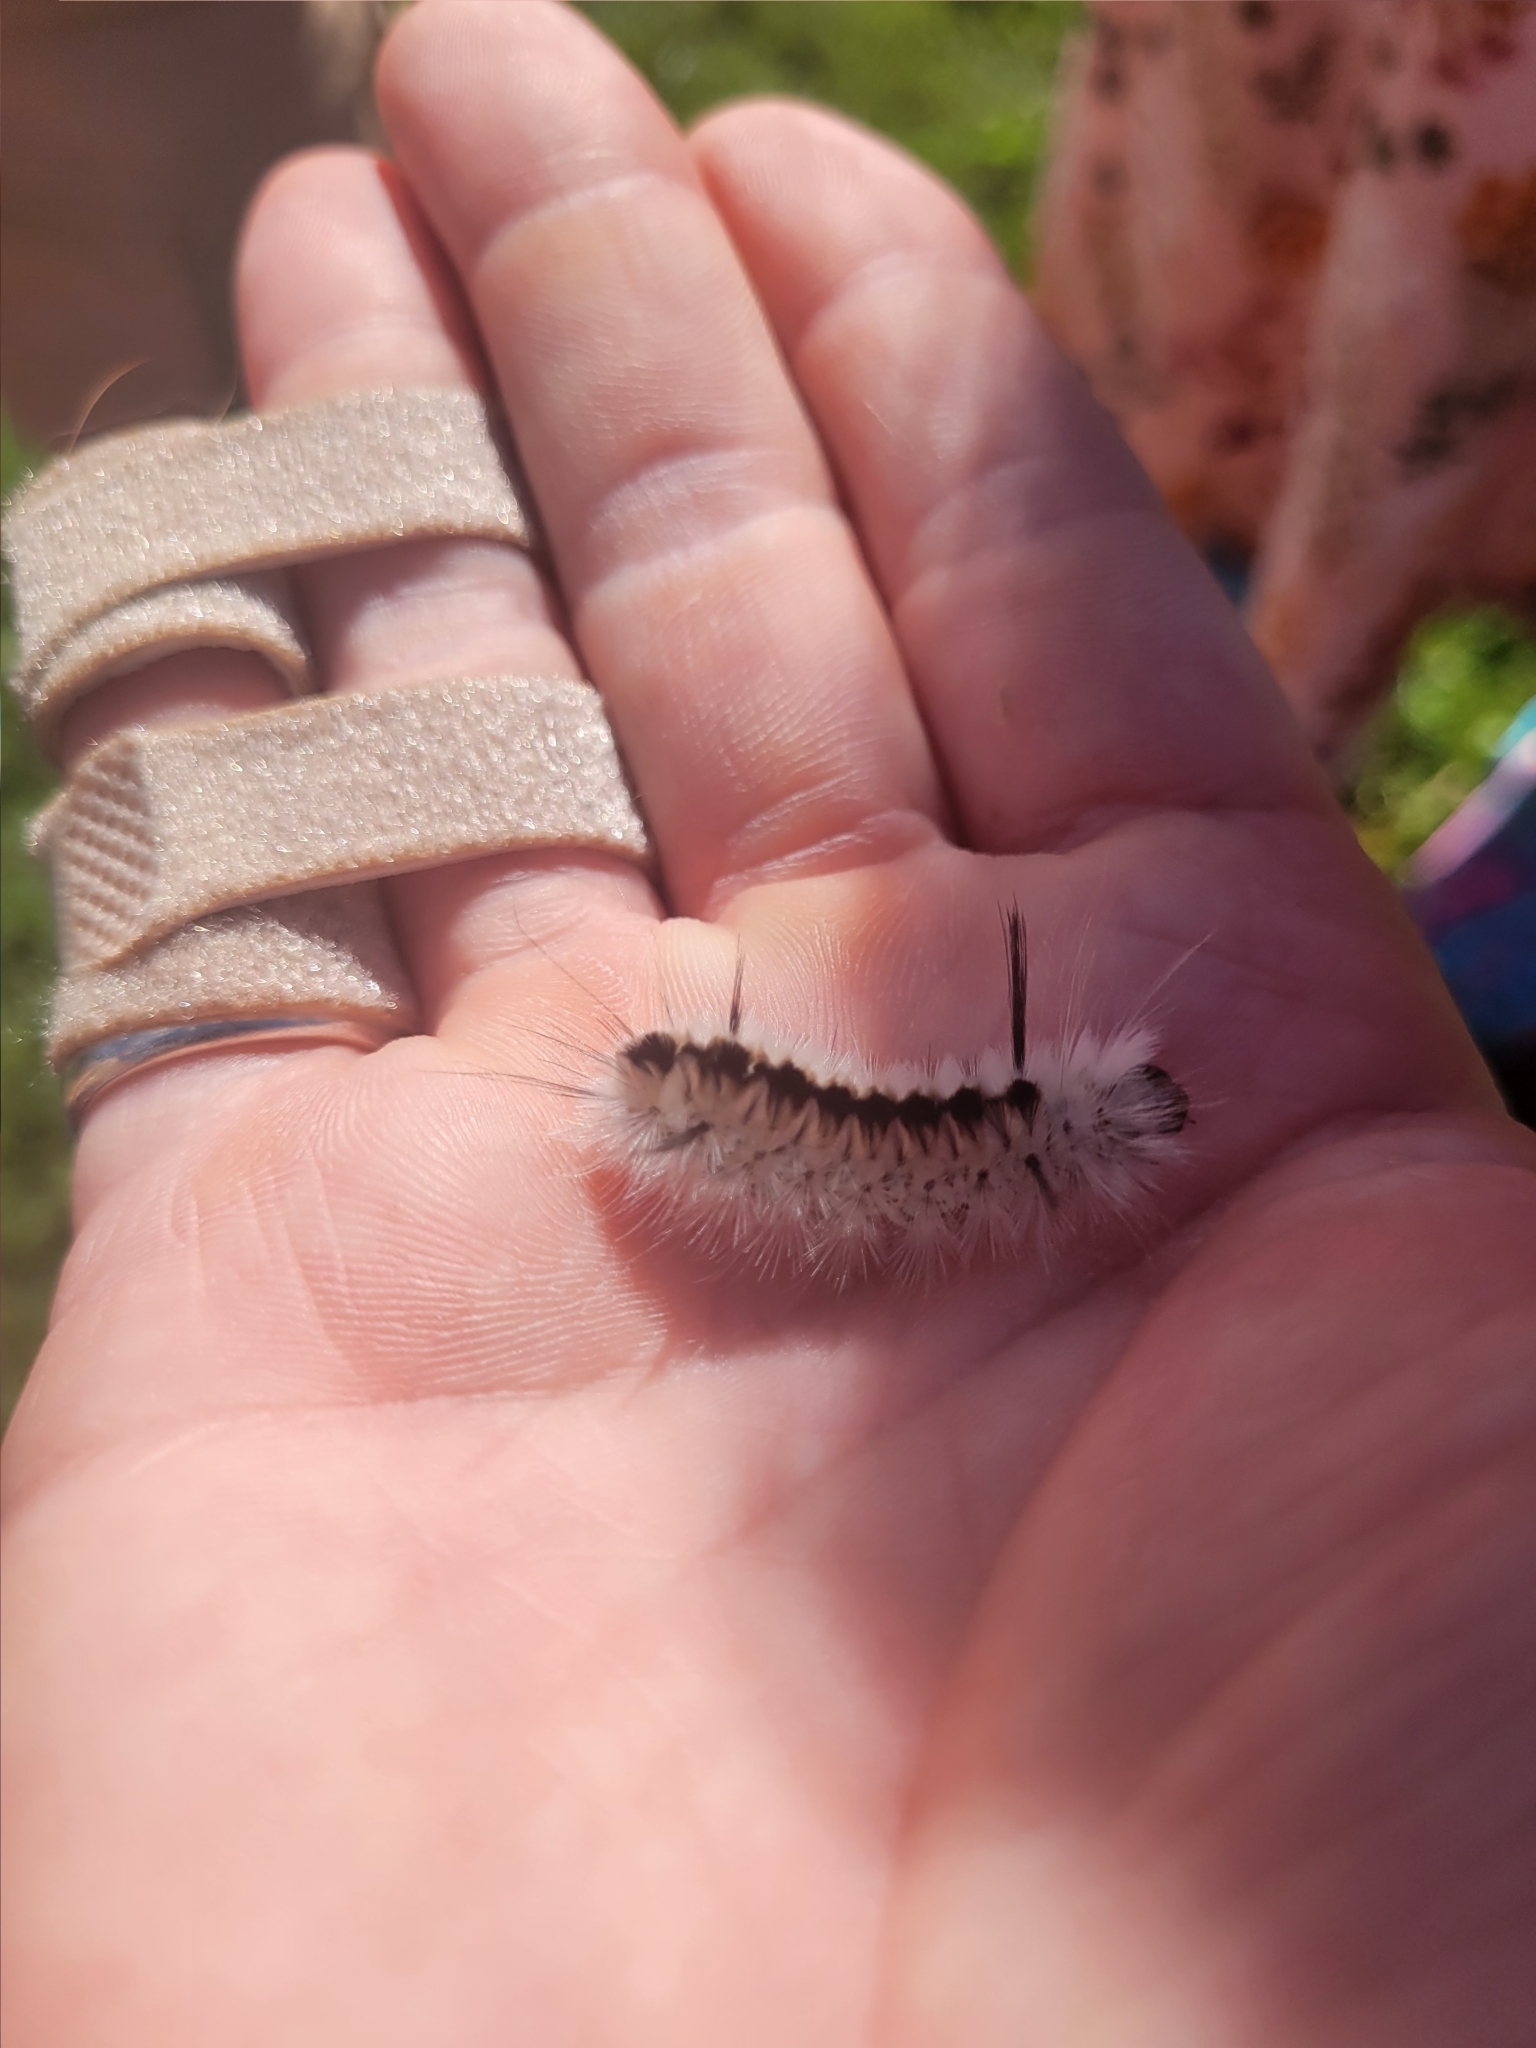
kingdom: Animalia
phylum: Arthropoda
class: Insecta
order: Lepidoptera
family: Erebidae
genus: Lophocampa
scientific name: Lophocampa caryae
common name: Hickory tussock moth
